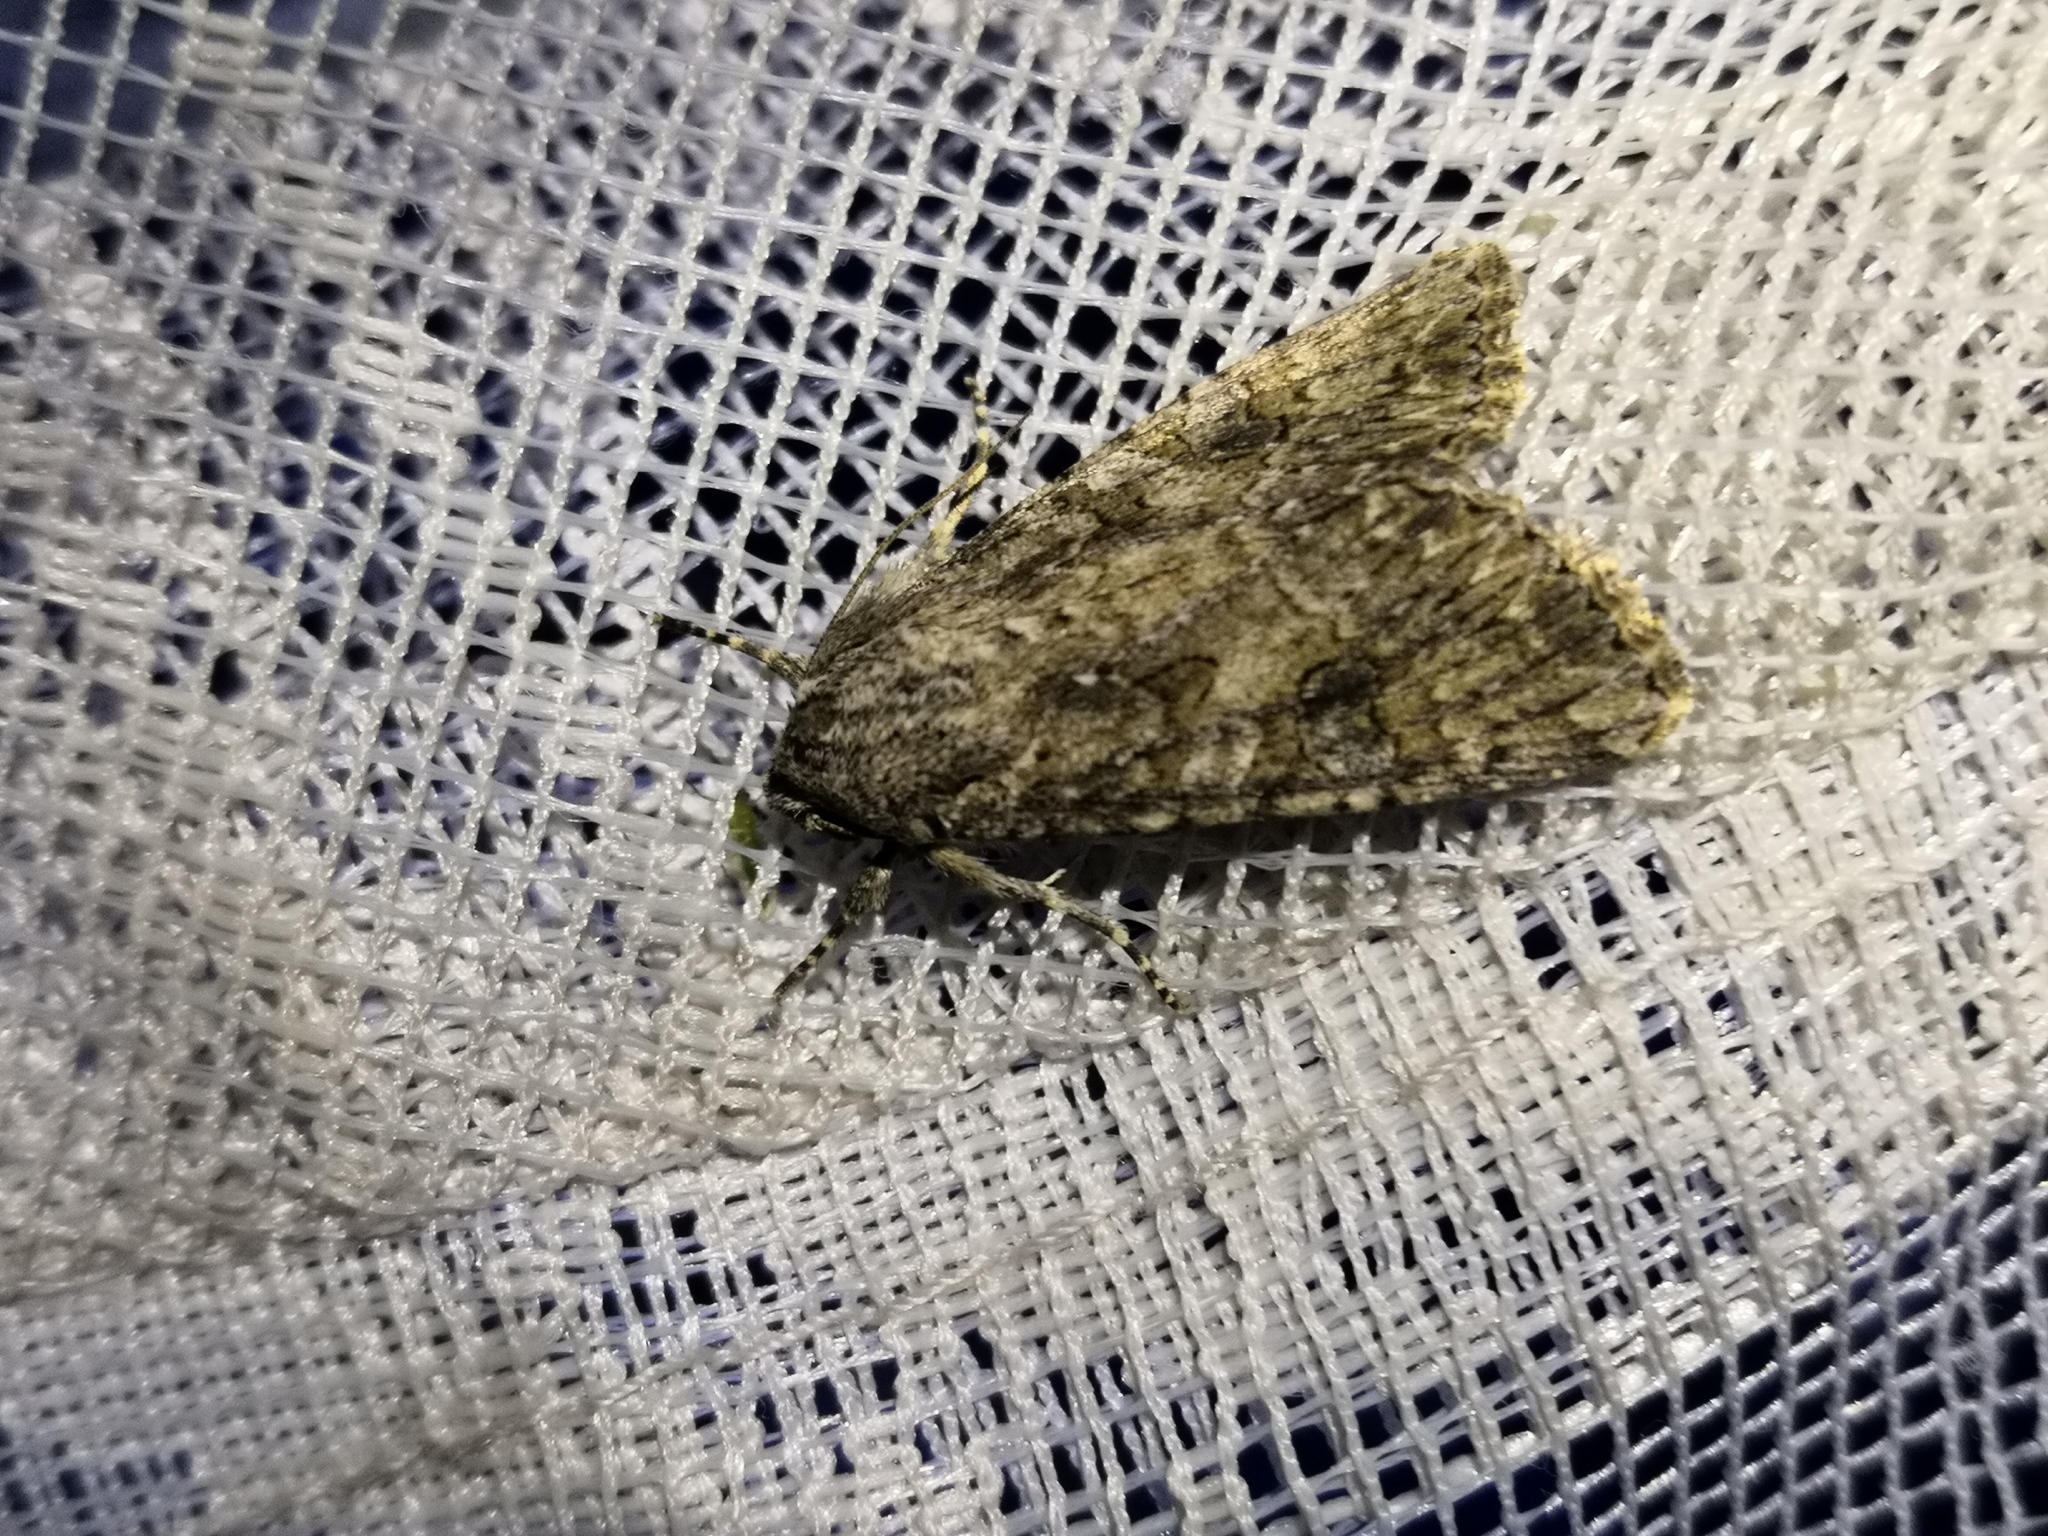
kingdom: Animalia
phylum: Arthropoda
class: Insecta
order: Lepidoptera
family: Noctuidae
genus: Anarta
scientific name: Anarta trifolii
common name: Clover cutworm moth
